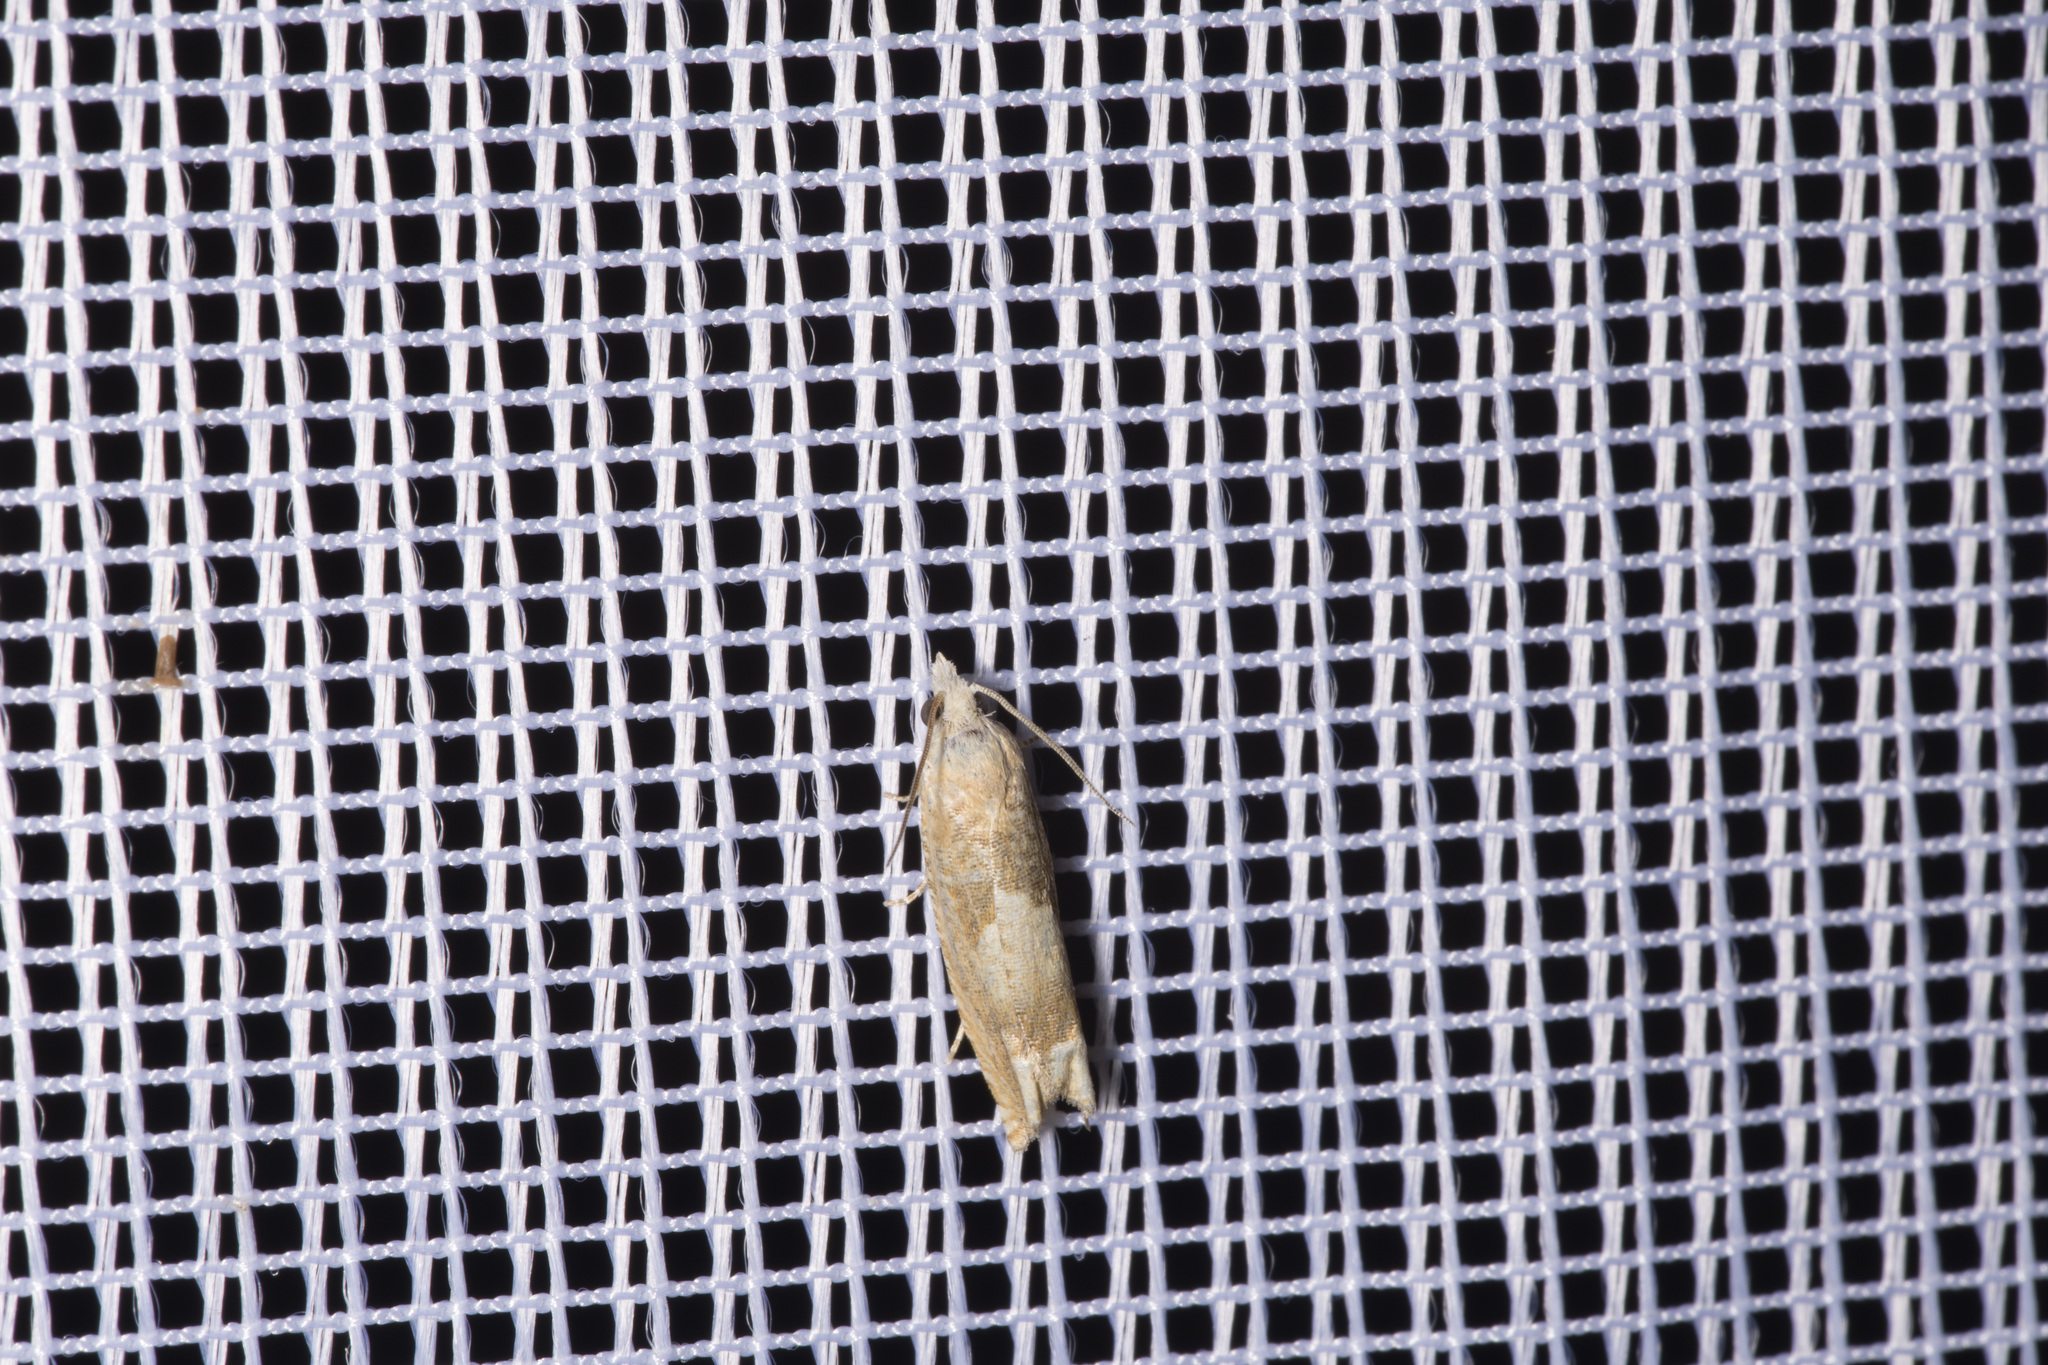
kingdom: Animalia
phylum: Arthropoda
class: Insecta
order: Lepidoptera
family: Tortricidae
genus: Eucosma
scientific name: Eucosma conterminana
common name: Pale lettuce bell
